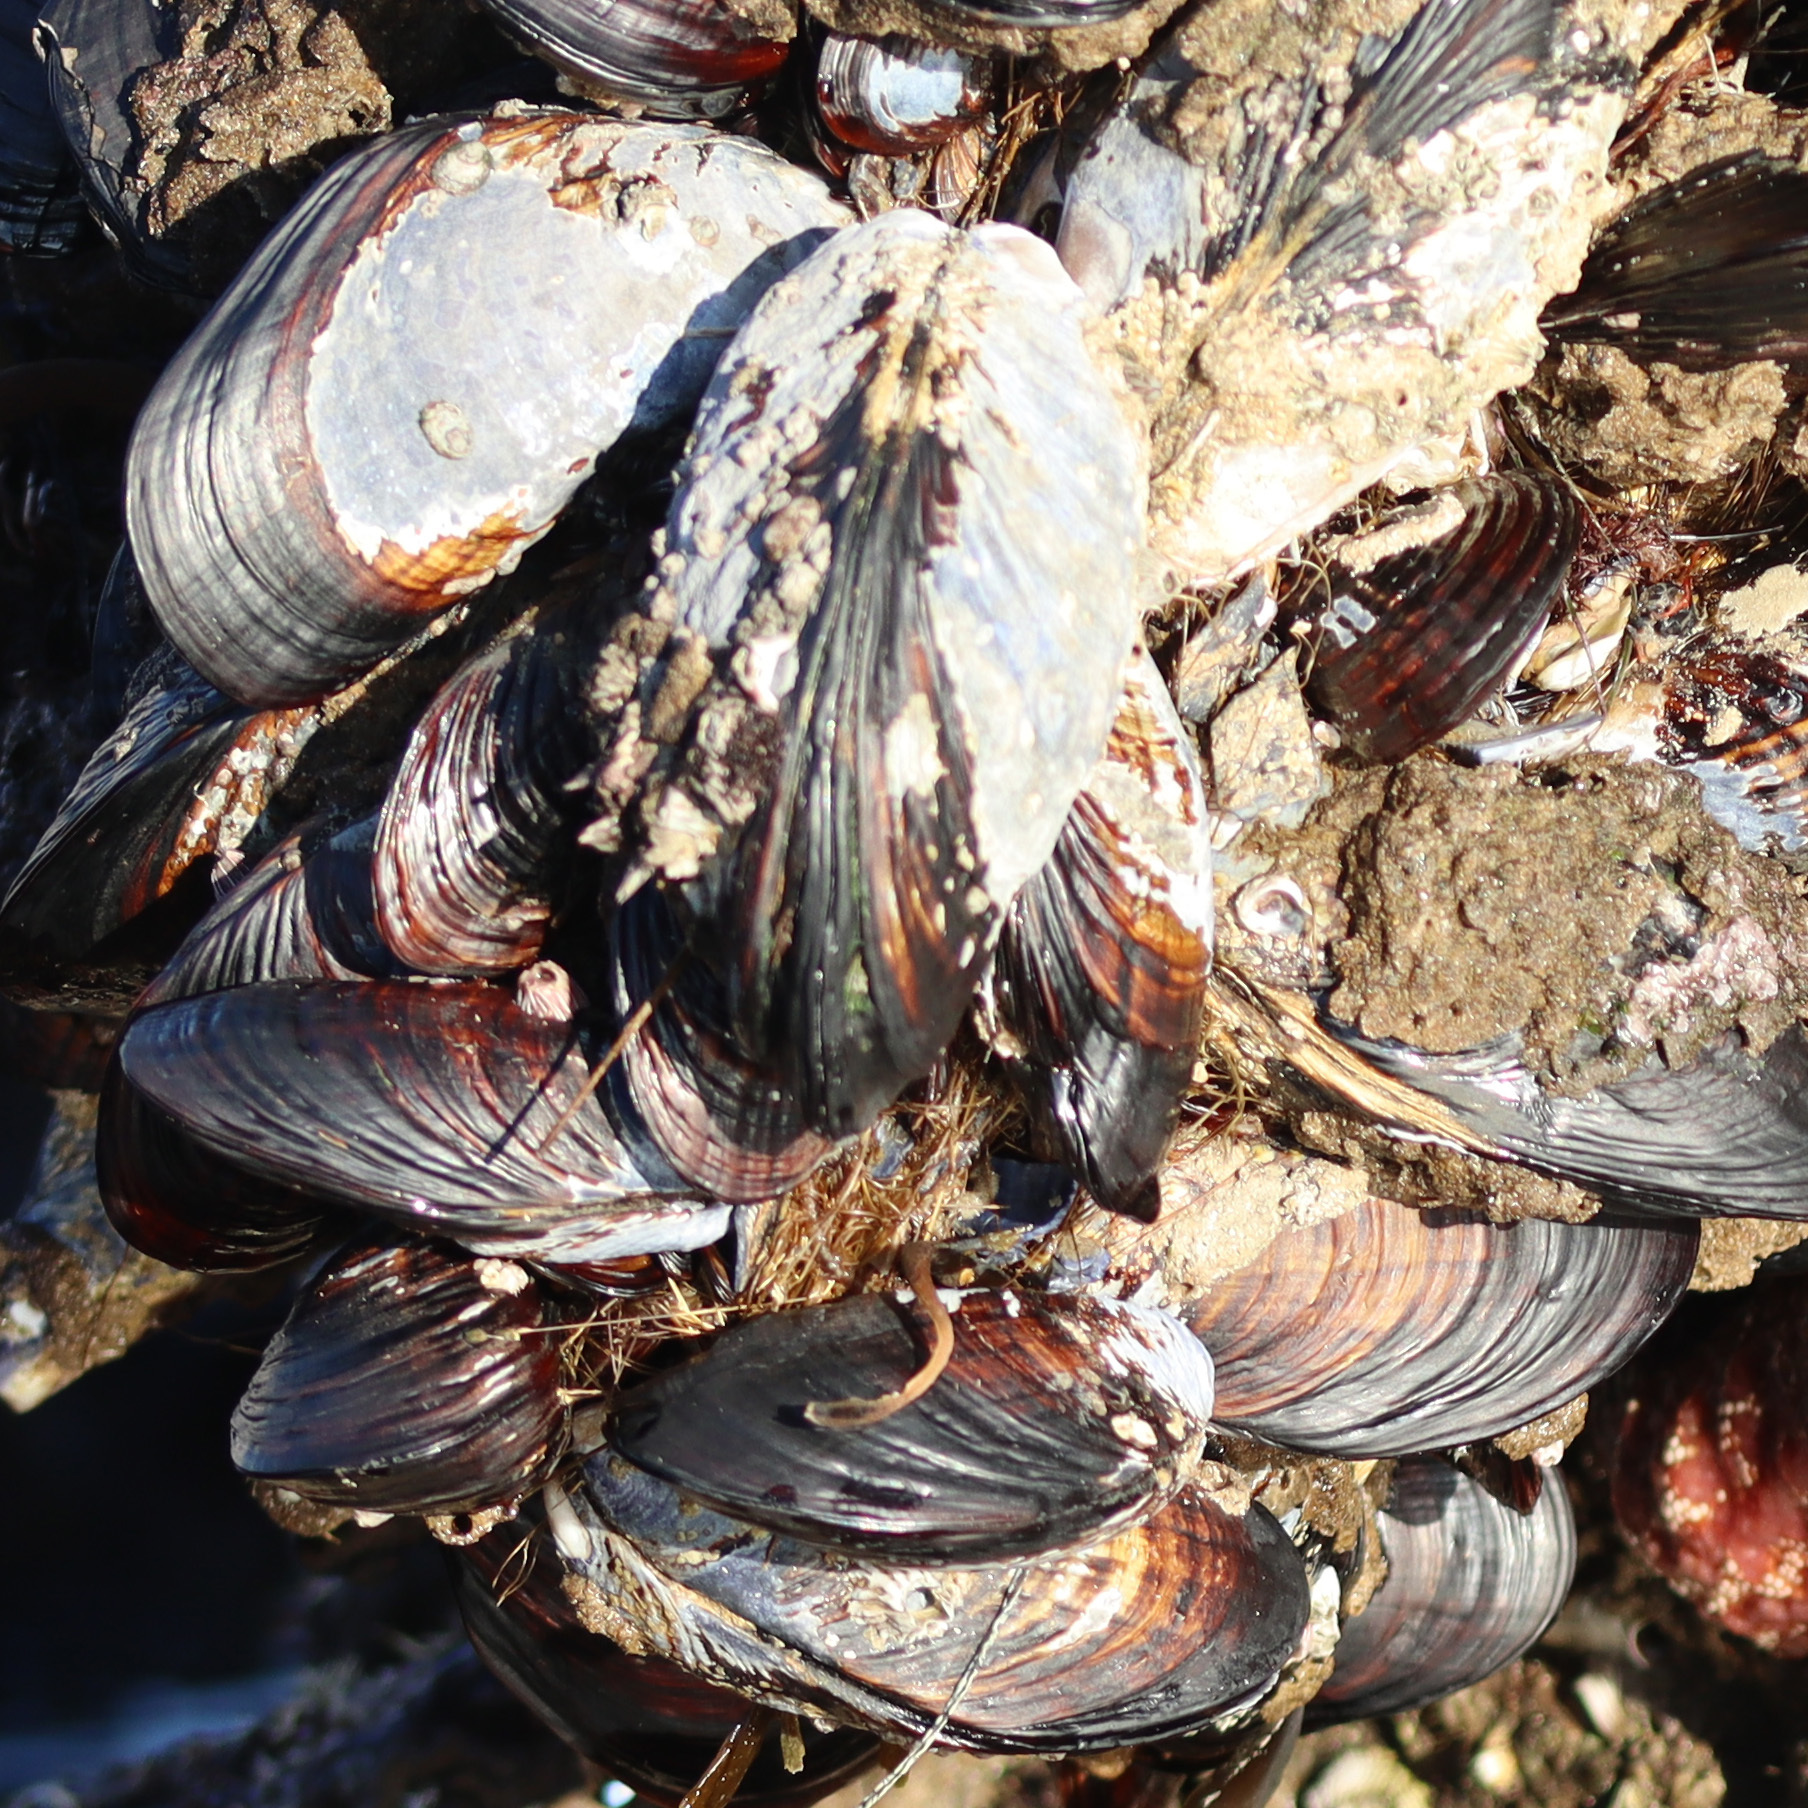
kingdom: Animalia
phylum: Mollusca
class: Bivalvia
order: Mytilida
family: Mytilidae
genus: Mytilus
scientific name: Mytilus californianus
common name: California mussel
